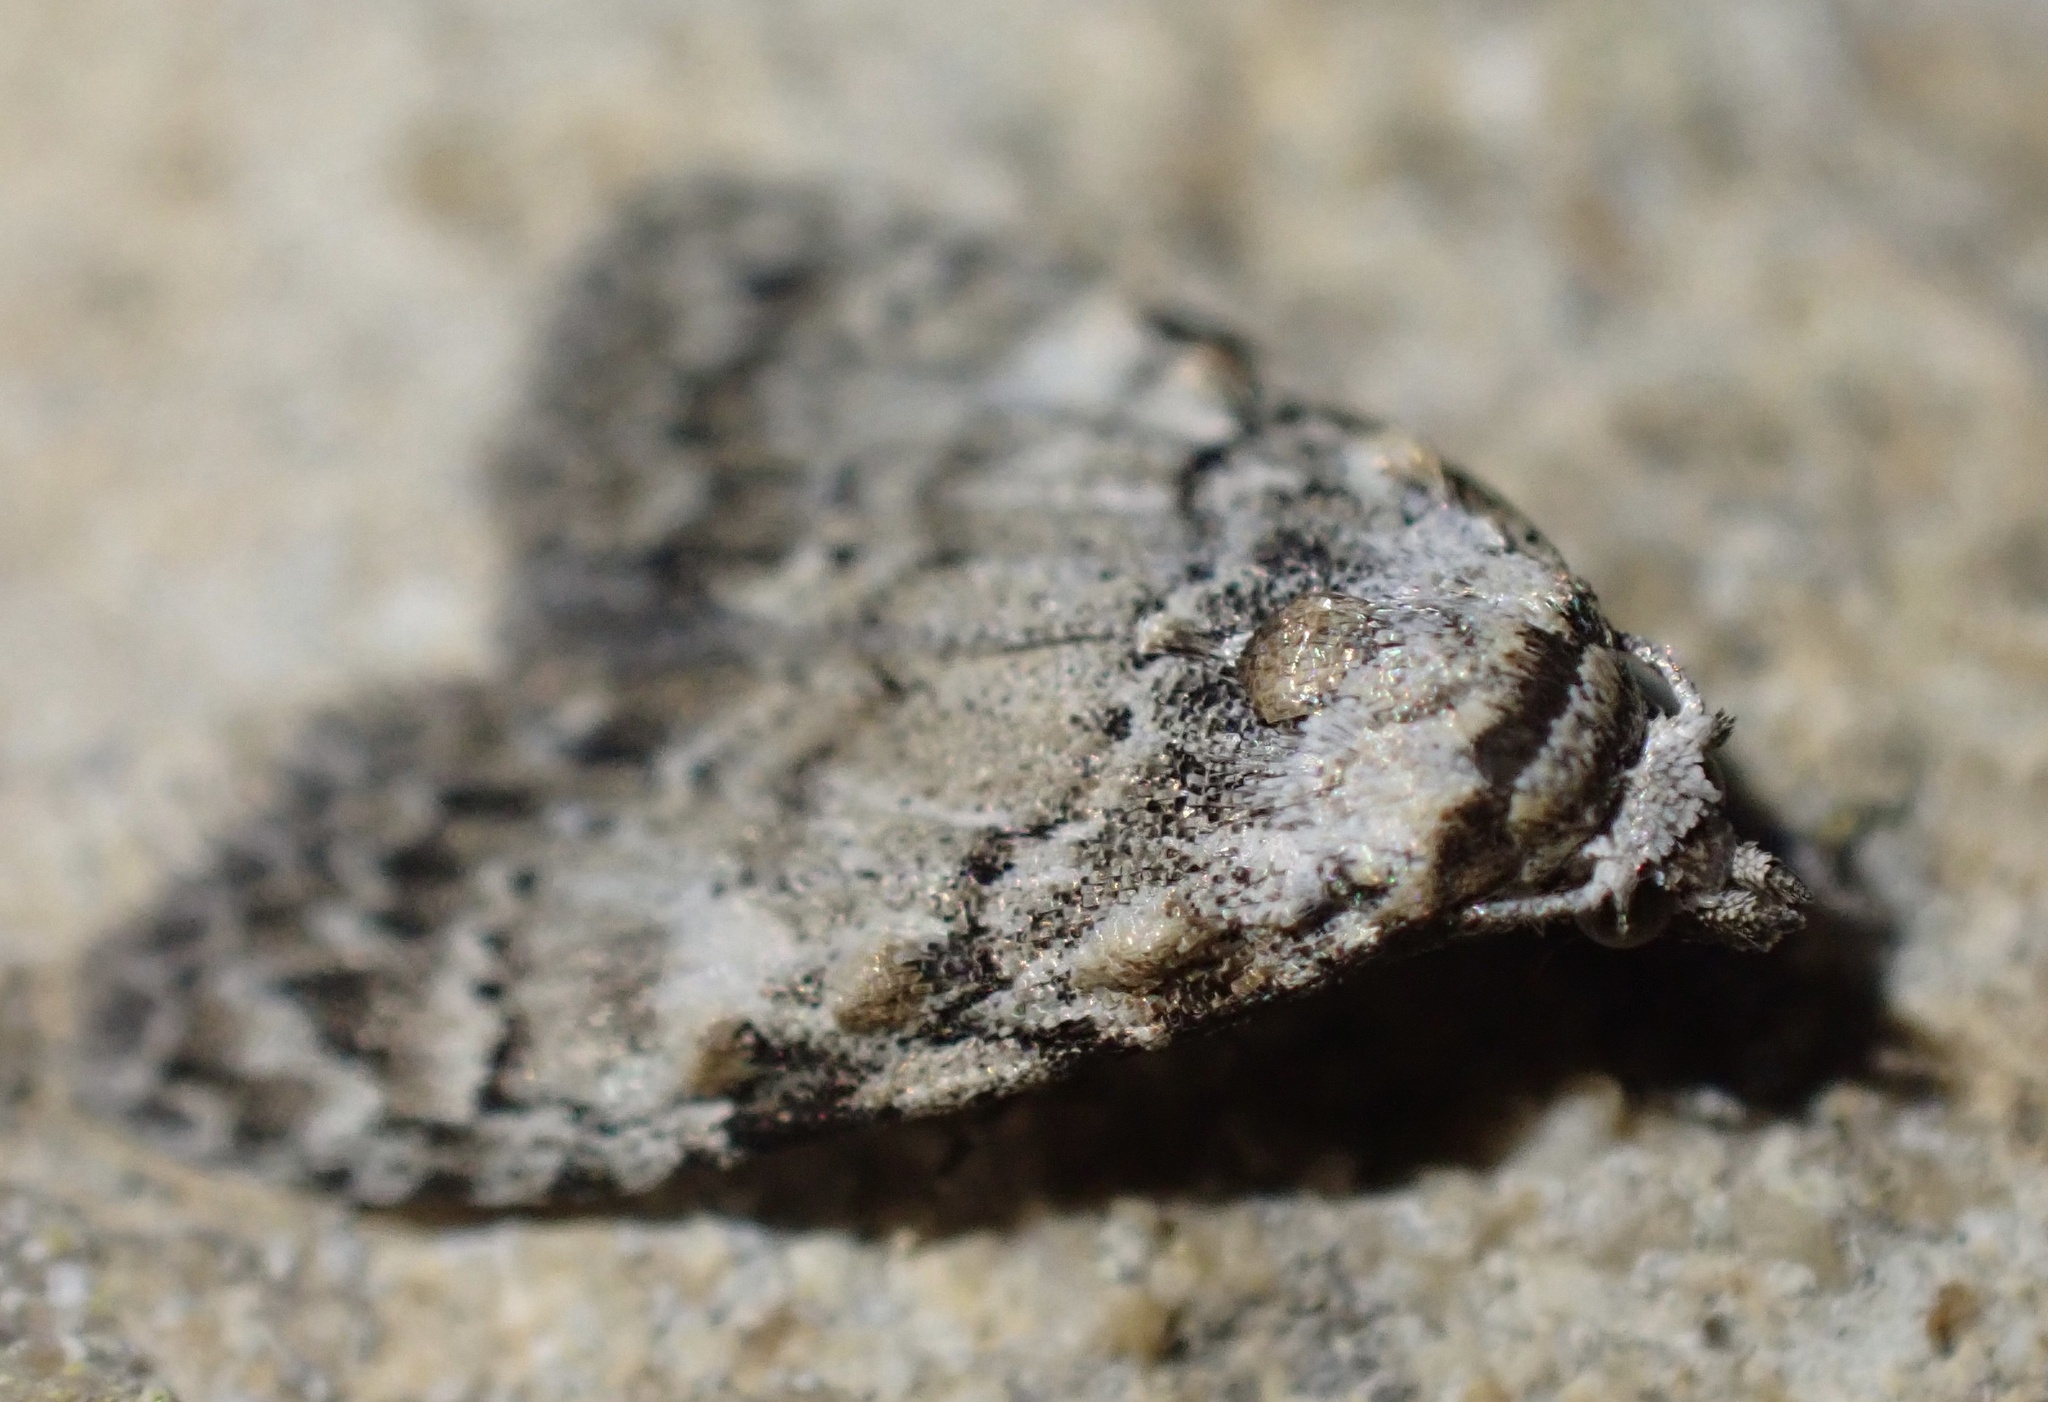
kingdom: Animalia
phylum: Arthropoda
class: Insecta
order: Lepidoptera
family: Nolidae
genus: Meganola
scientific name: Meganola strigula
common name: Small black arches
